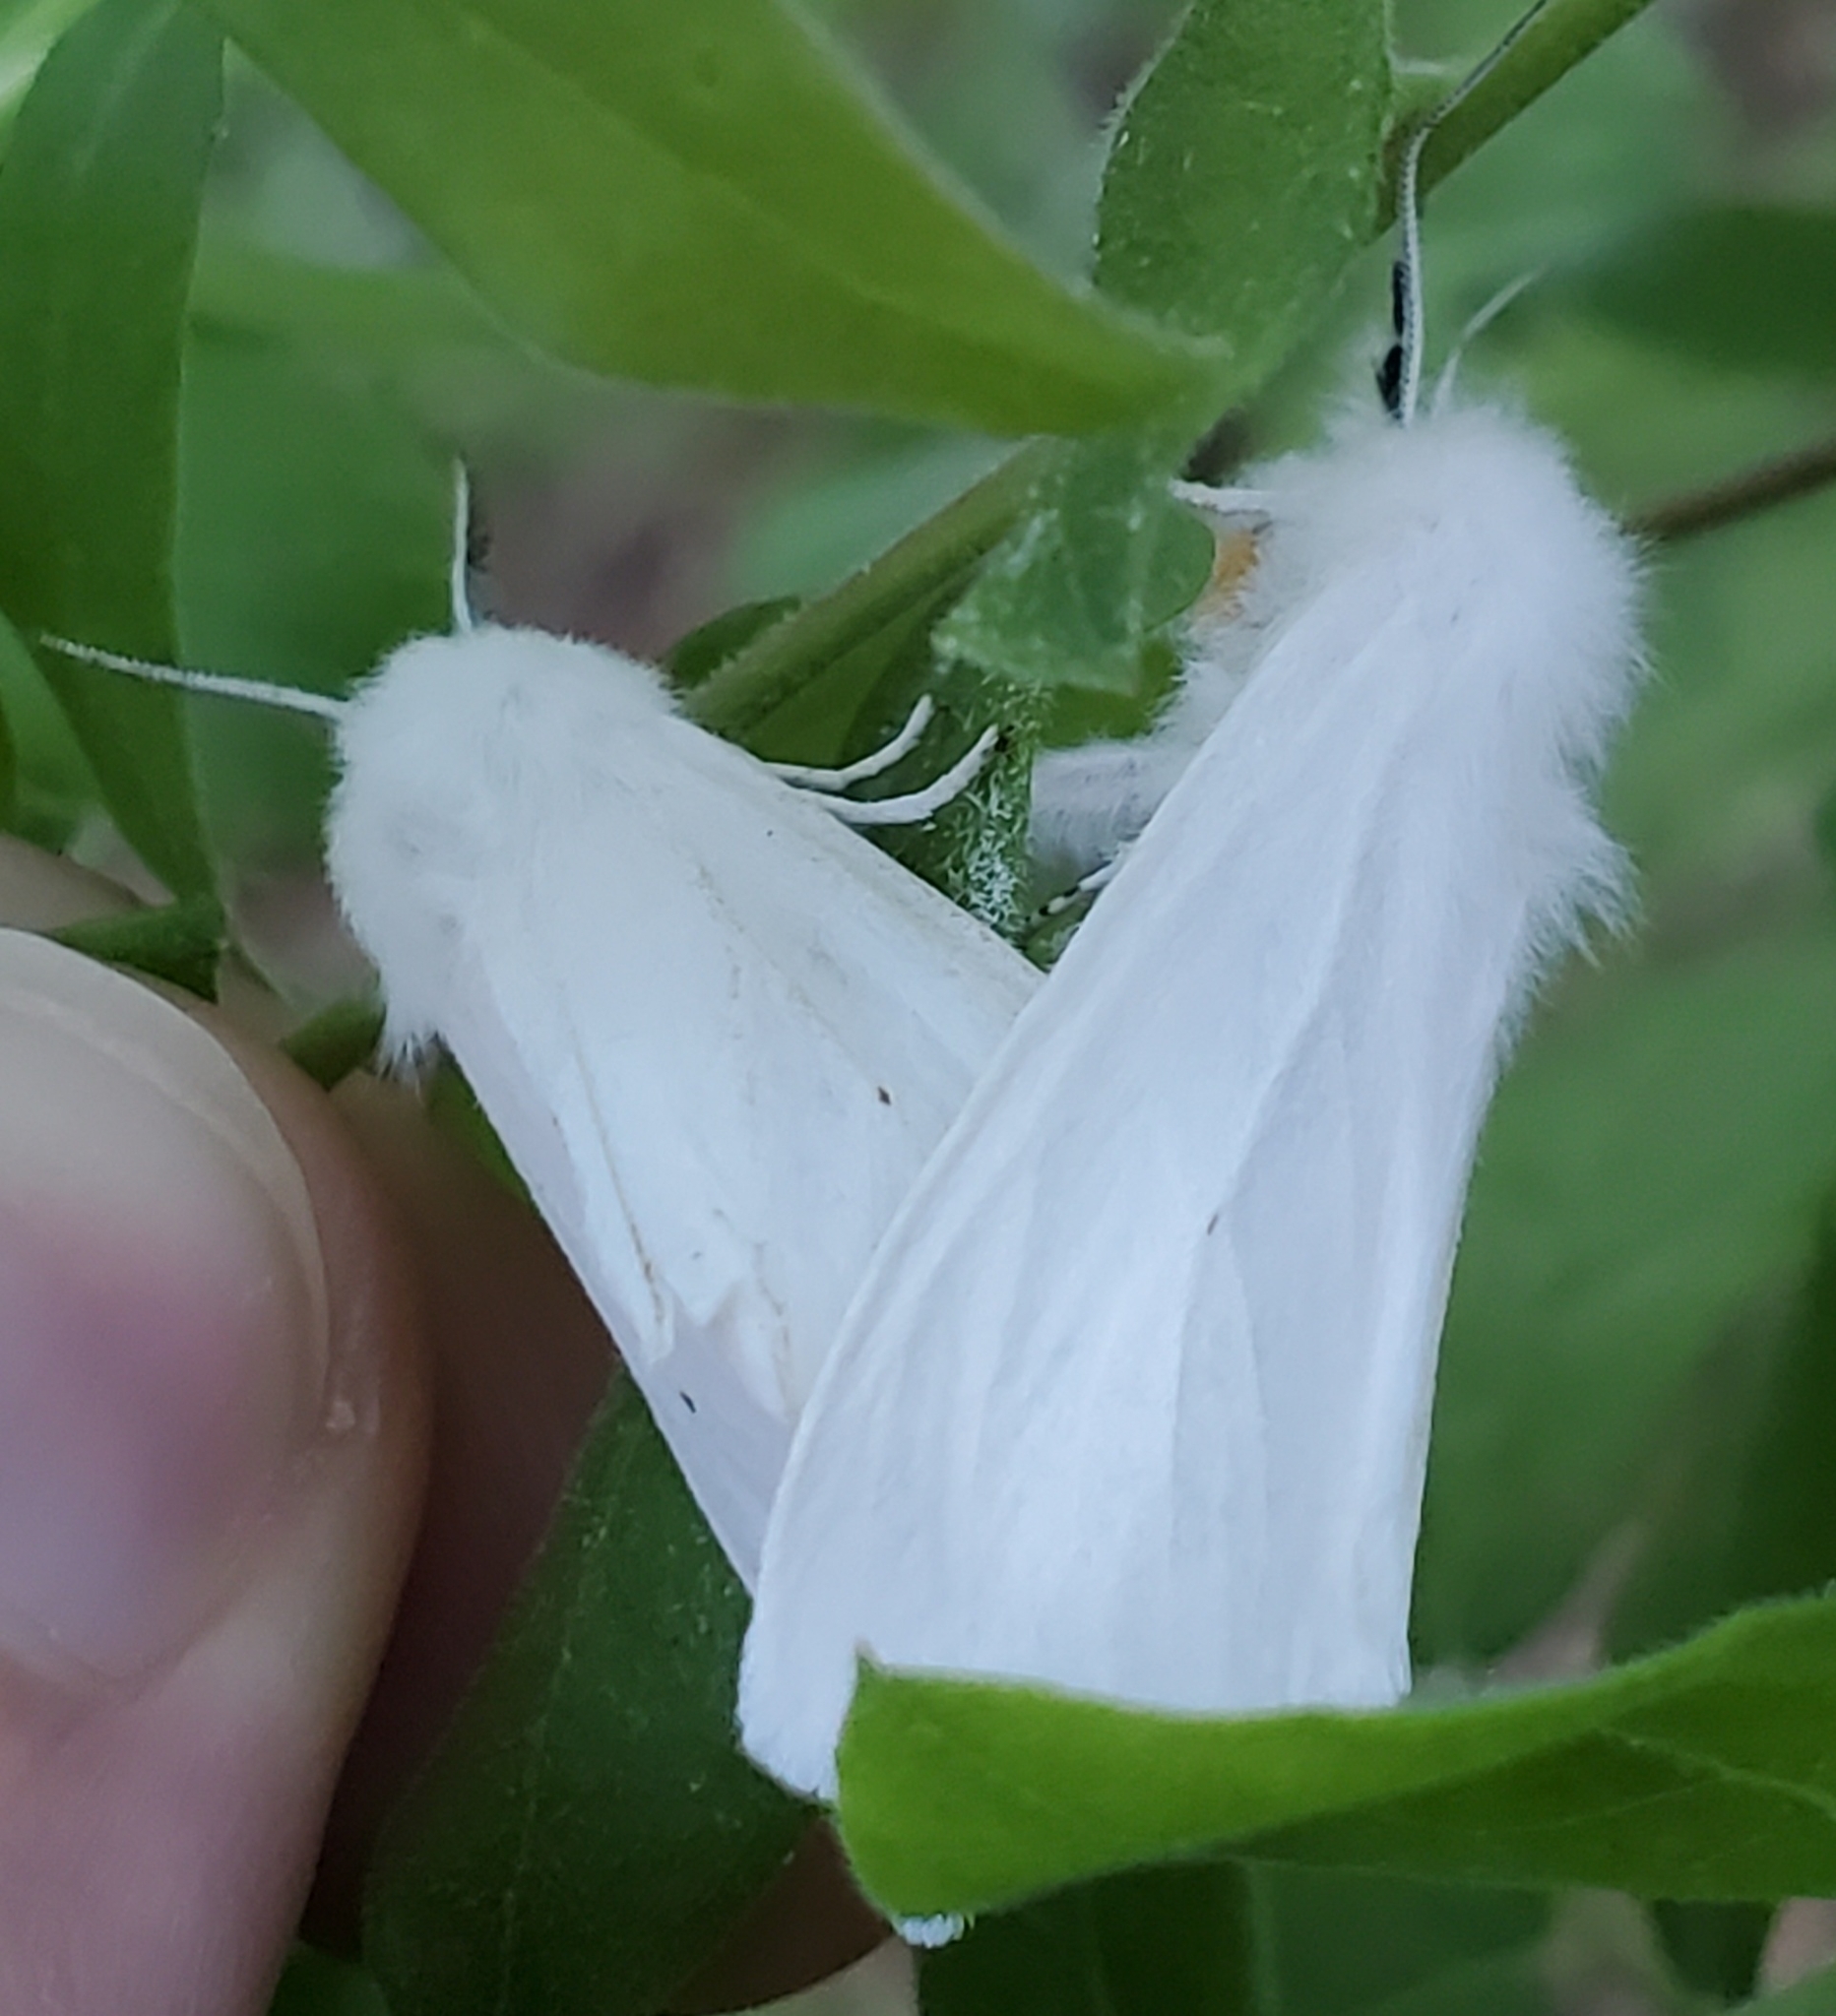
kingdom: Animalia
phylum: Arthropoda
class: Insecta
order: Lepidoptera
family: Erebidae
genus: Spilosoma
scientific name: Spilosoma virginica
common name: Virginia tiger moth
